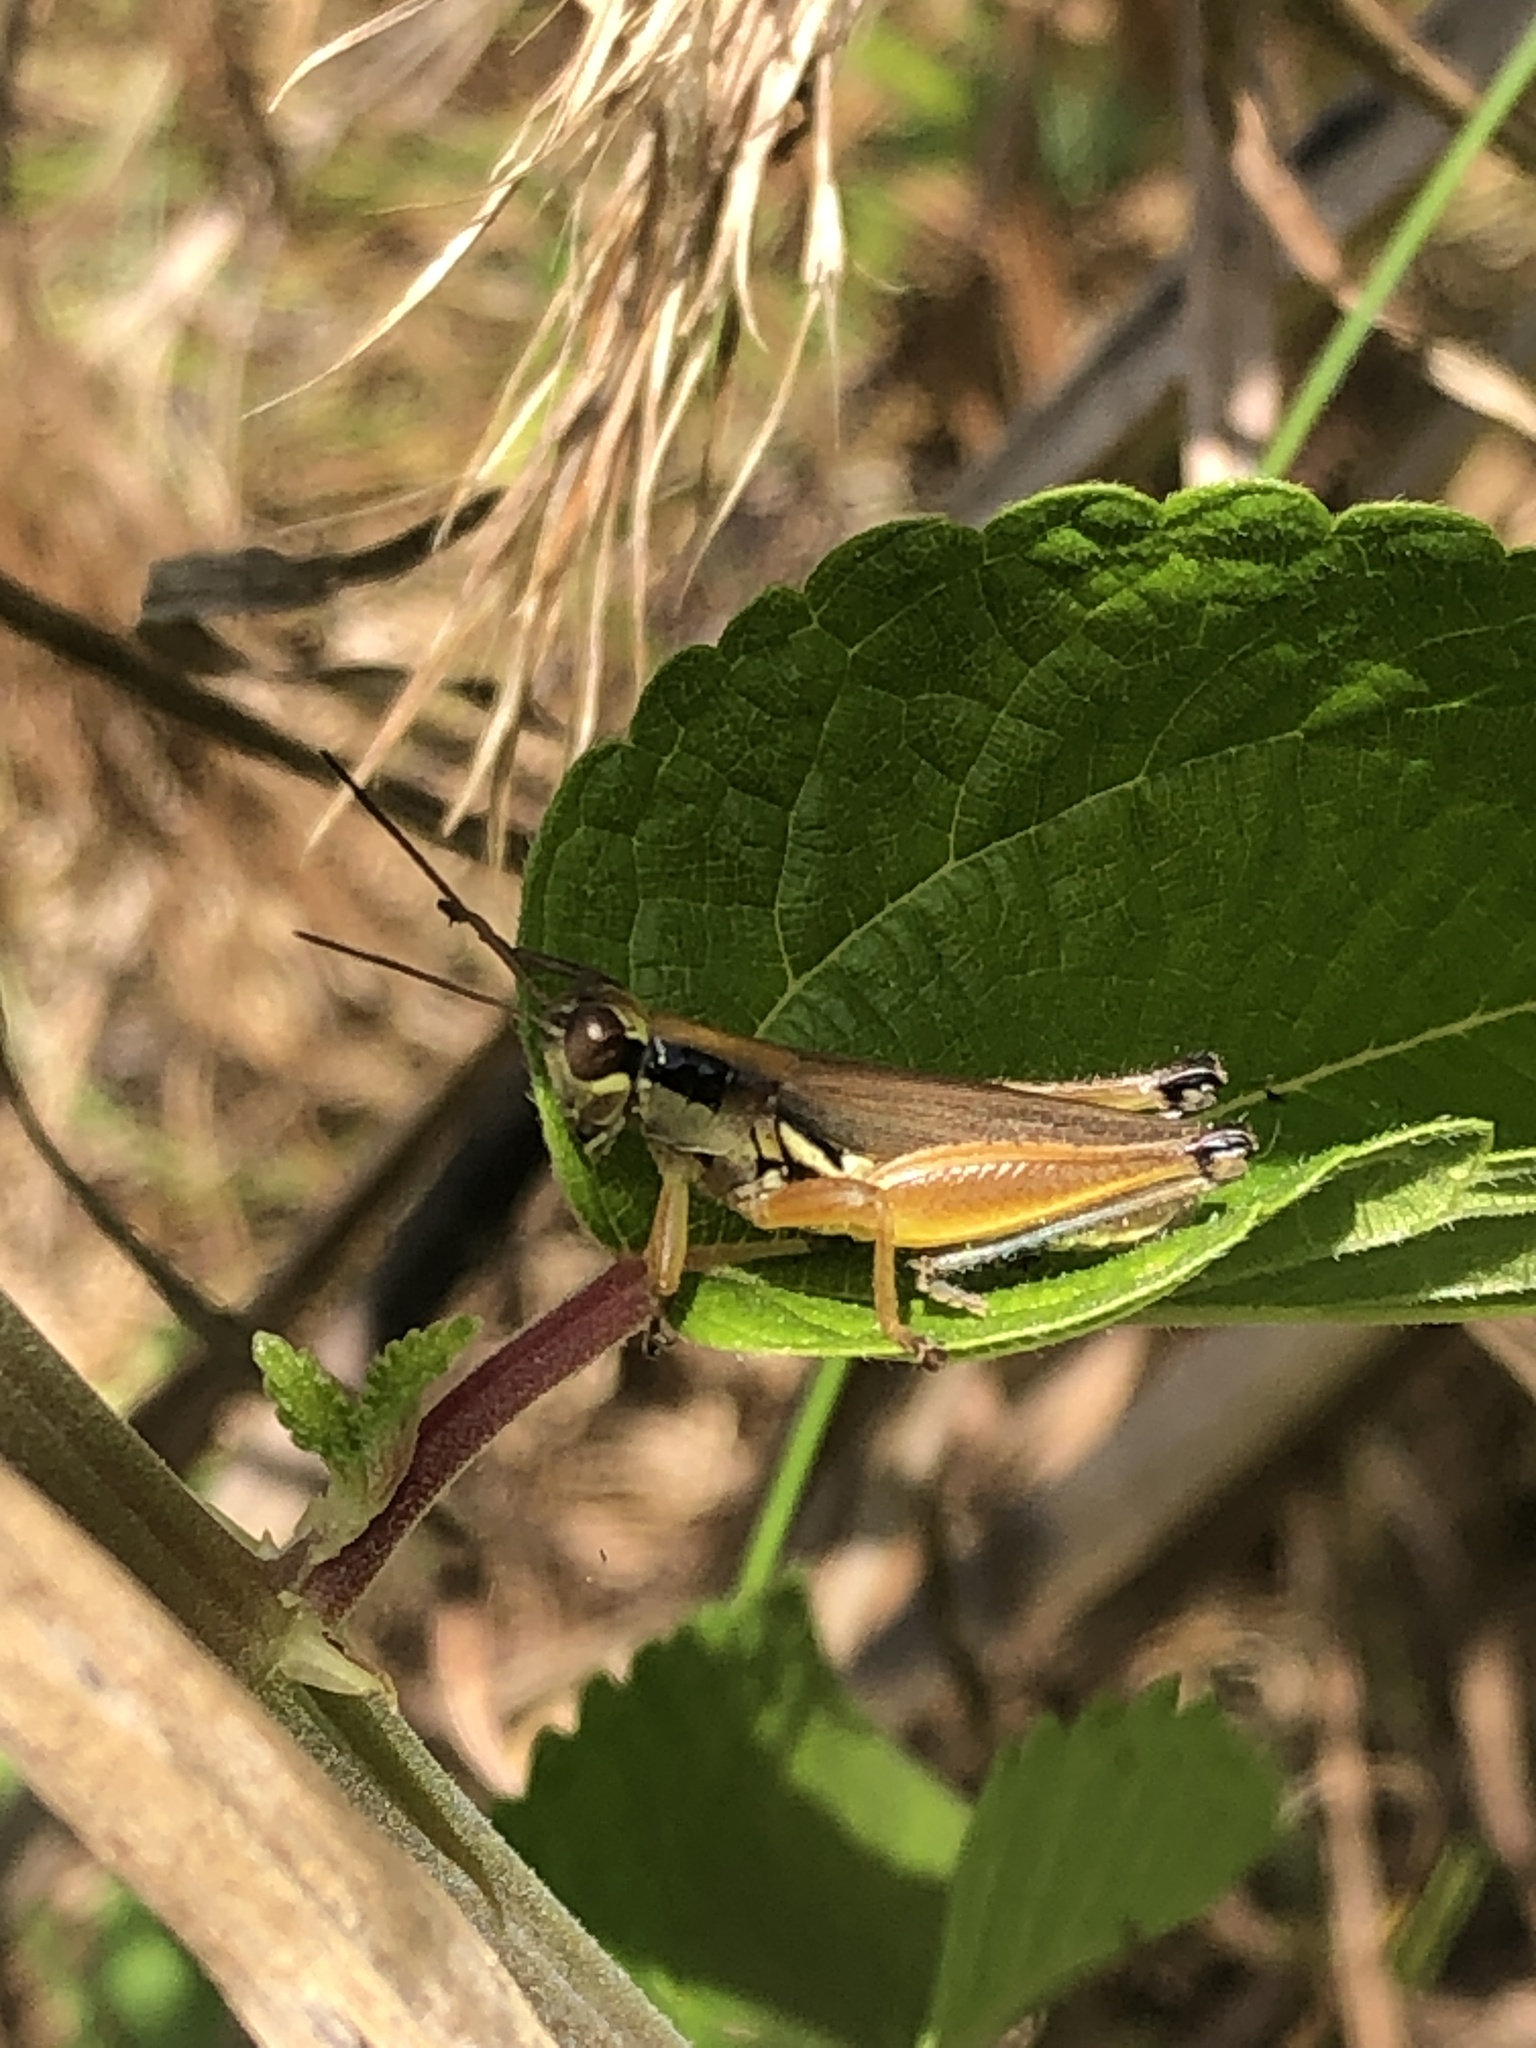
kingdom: Animalia
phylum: Arthropoda
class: Insecta
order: Orthoptera
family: Acrididae
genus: Paroxya
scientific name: Paroxya atlantica
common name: Atlantic grasshopper
